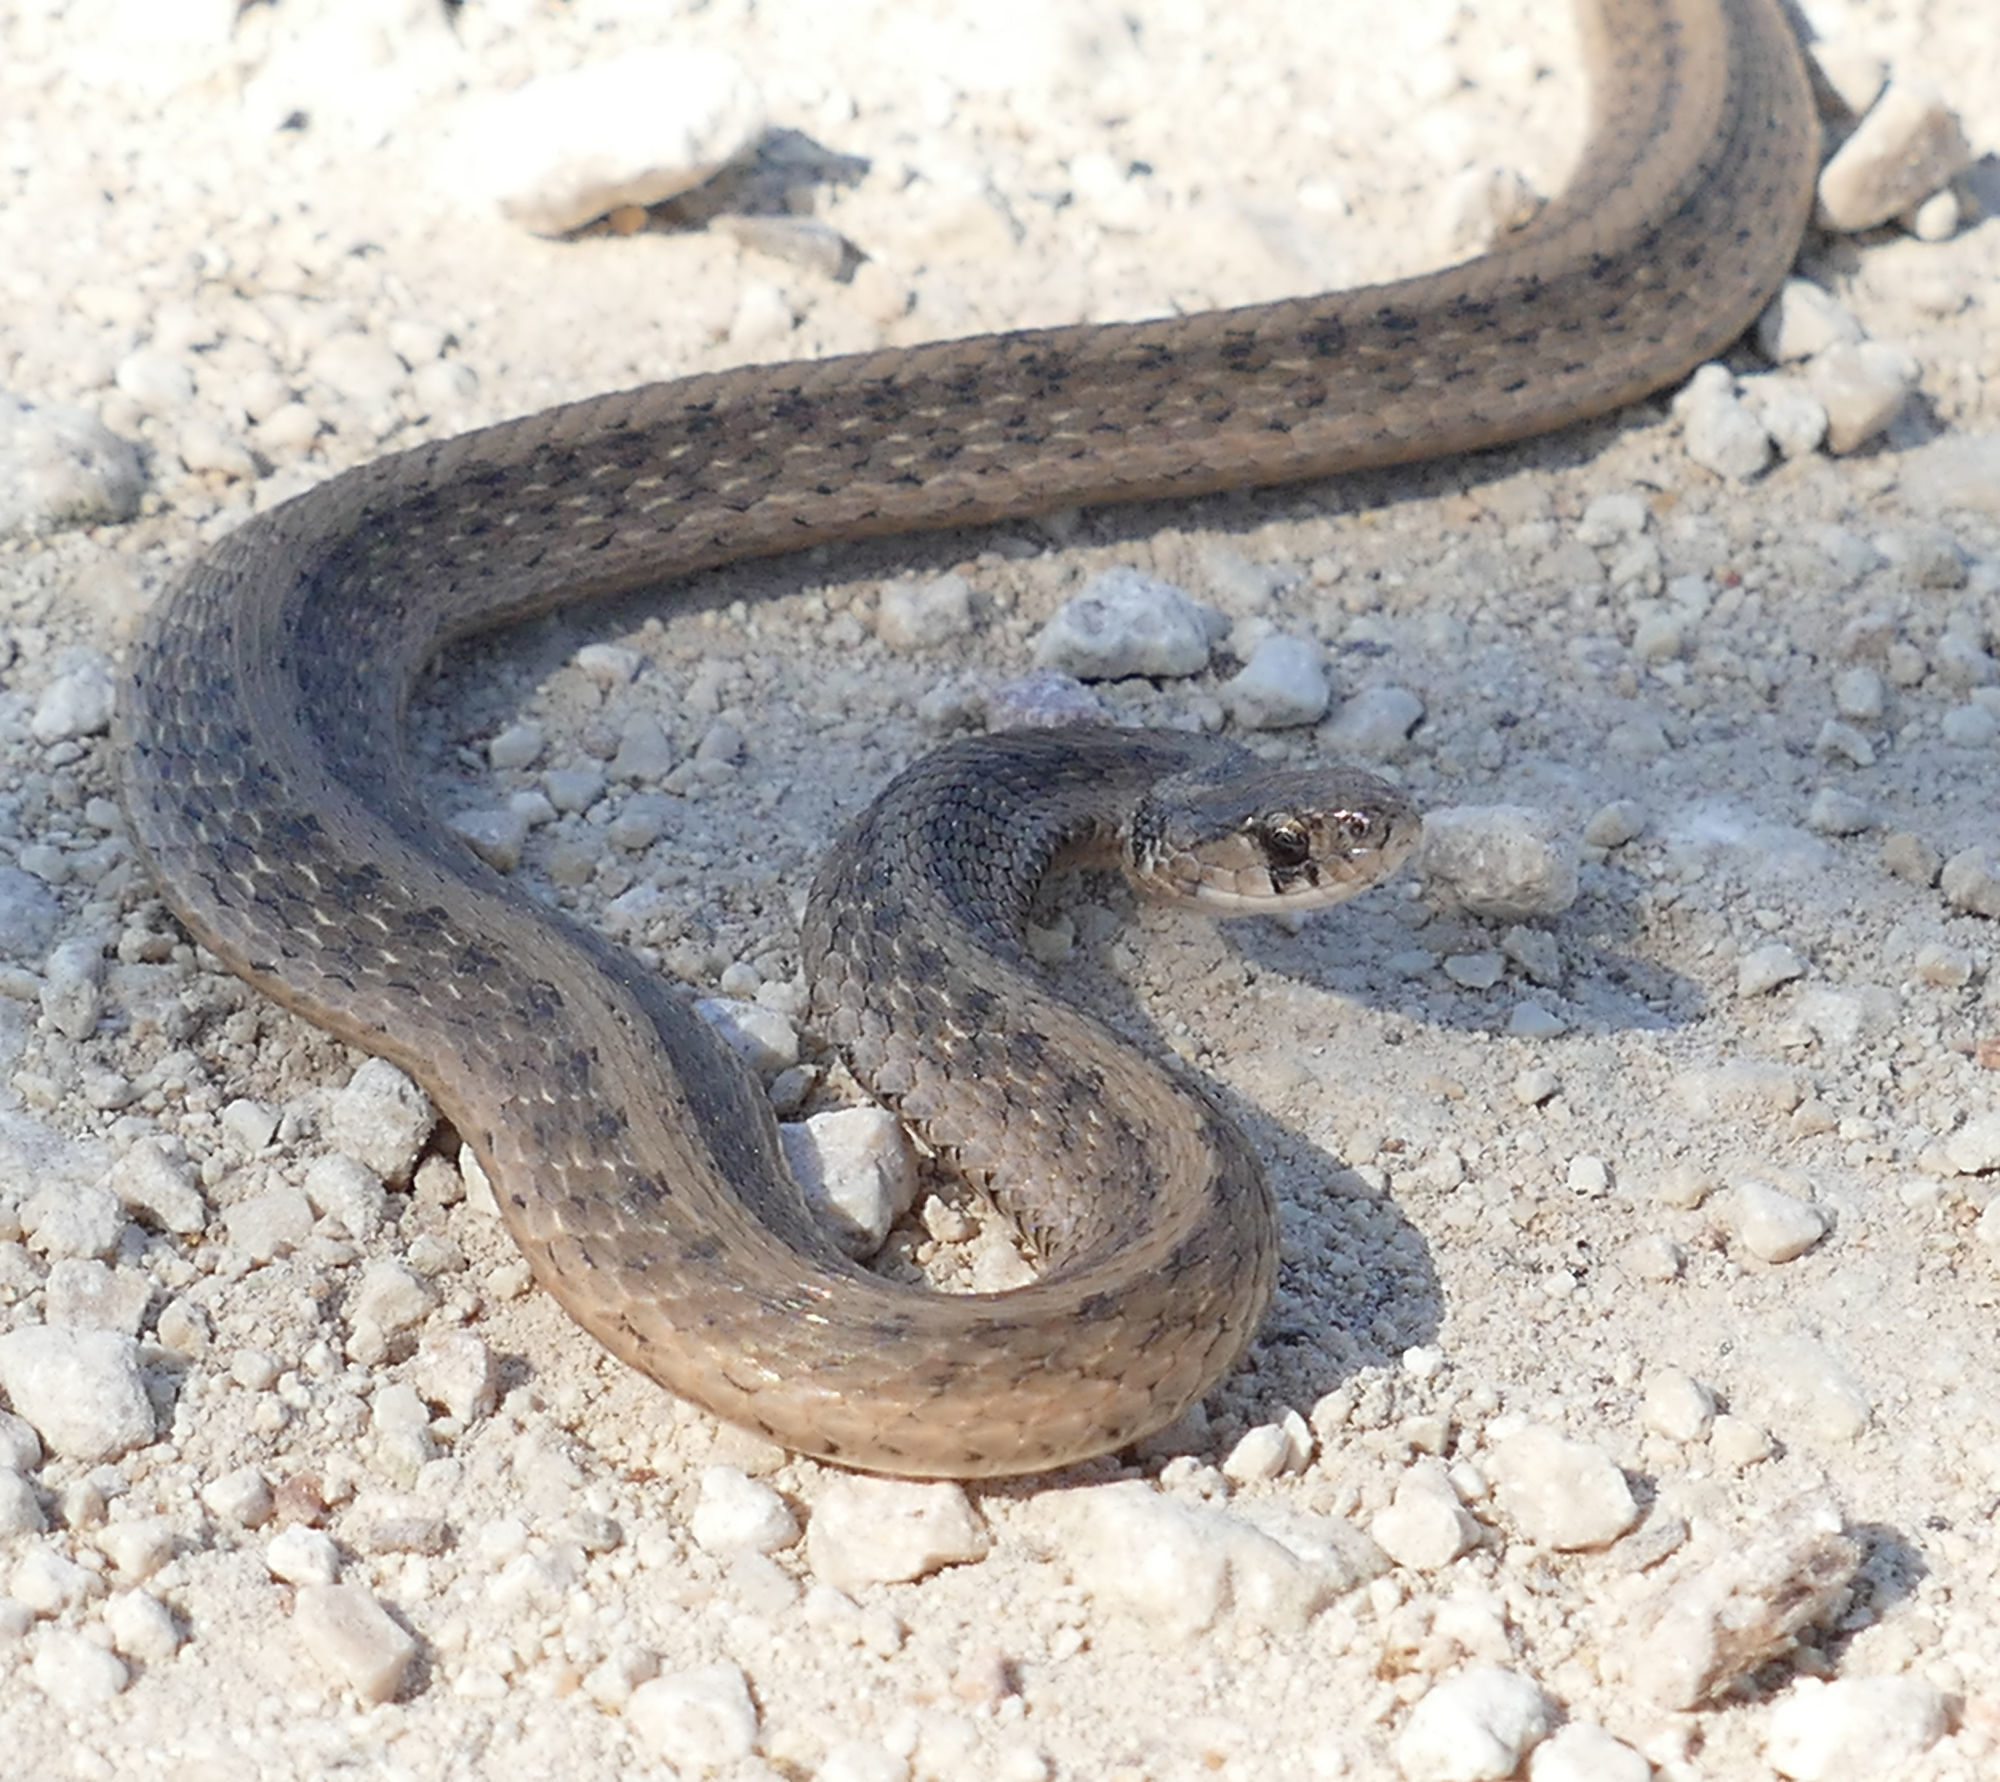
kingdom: Animalia
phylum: Chordata
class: Squamata
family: Colubridae
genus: Storeria
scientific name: Storeria dekayi
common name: (dekay’s) brown snake
